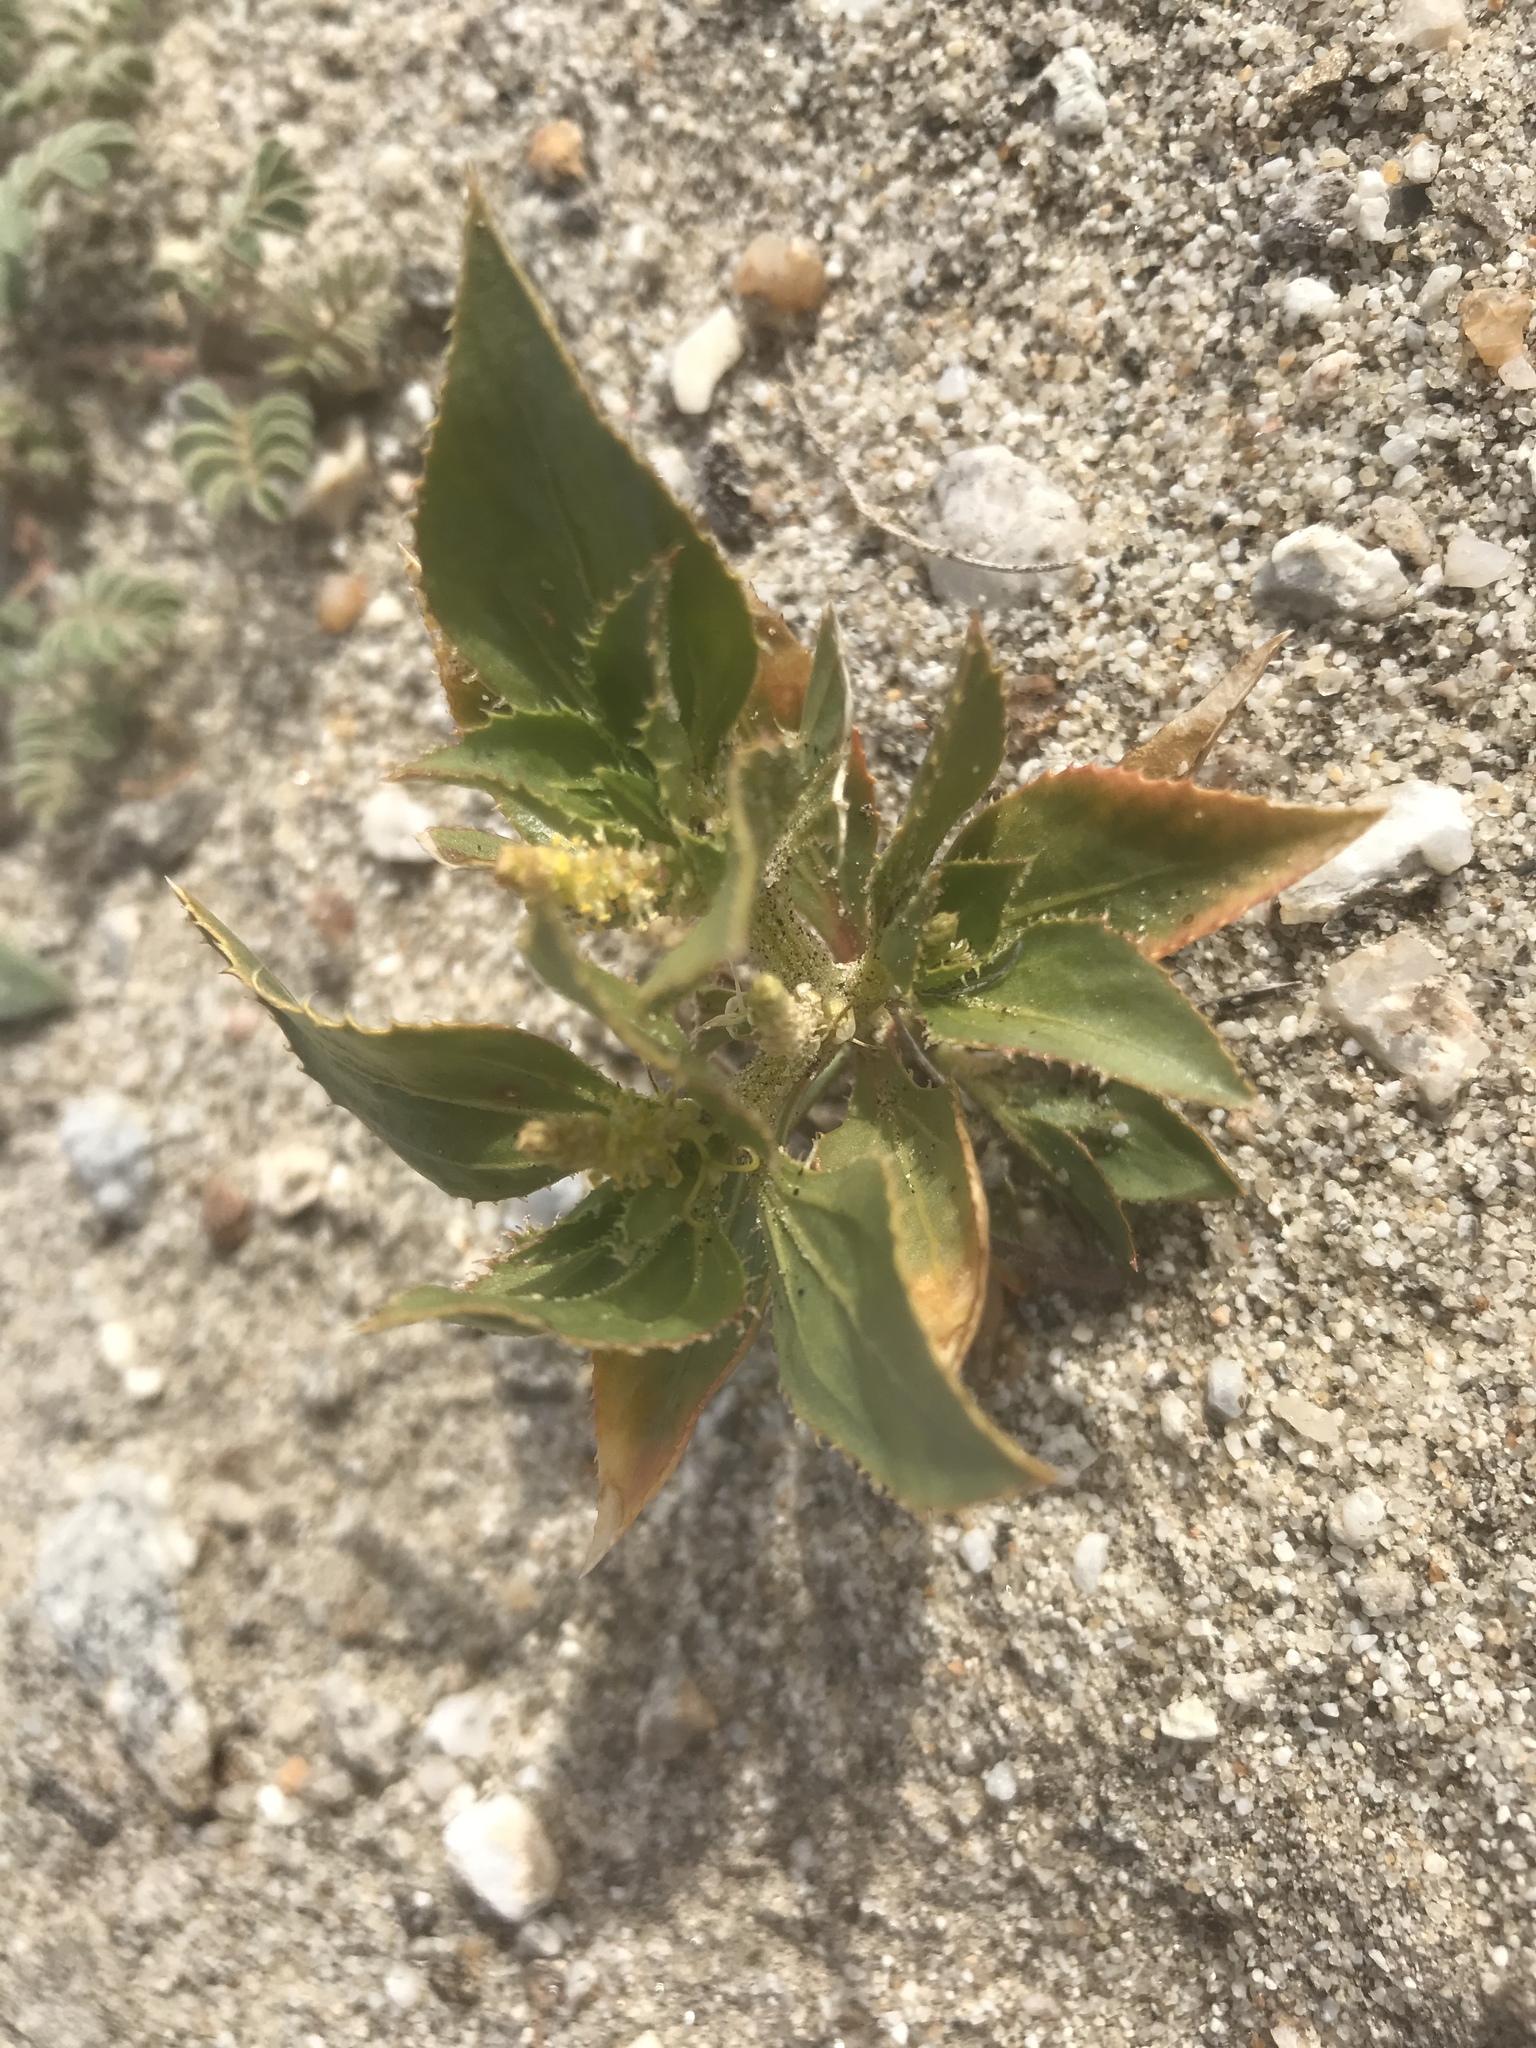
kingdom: Plantae
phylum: Tracheophyta
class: Magnoliopsida
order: Malpighiales
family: Euphorbiaceae
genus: Stillingia
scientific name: Stillingia spinulosa
